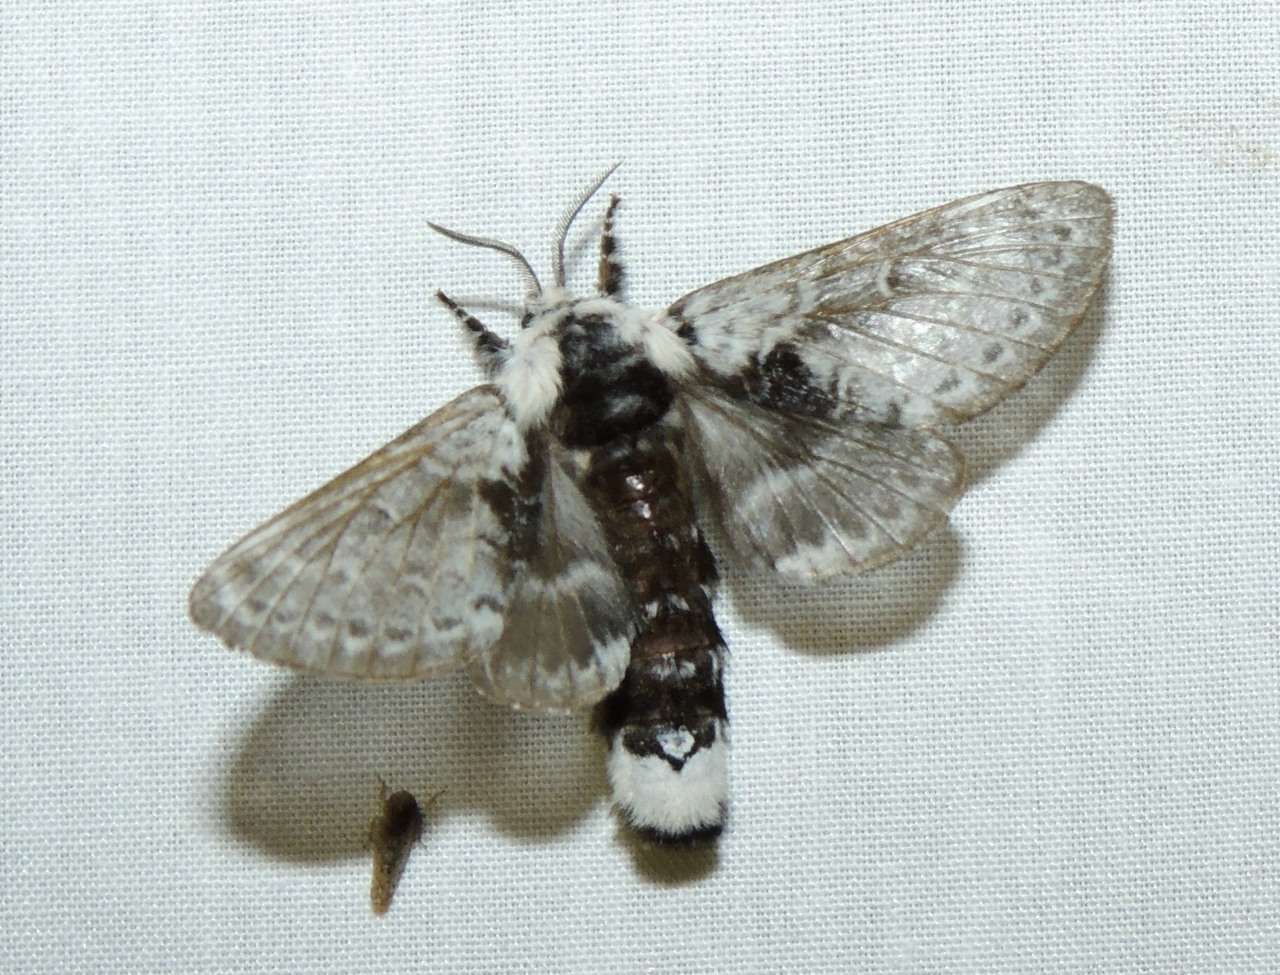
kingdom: Animalia
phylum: Arthropoda
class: Insecta
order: Lepidoptera
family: Lasiocampidae
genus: Genduara
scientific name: Genduara subnotata
